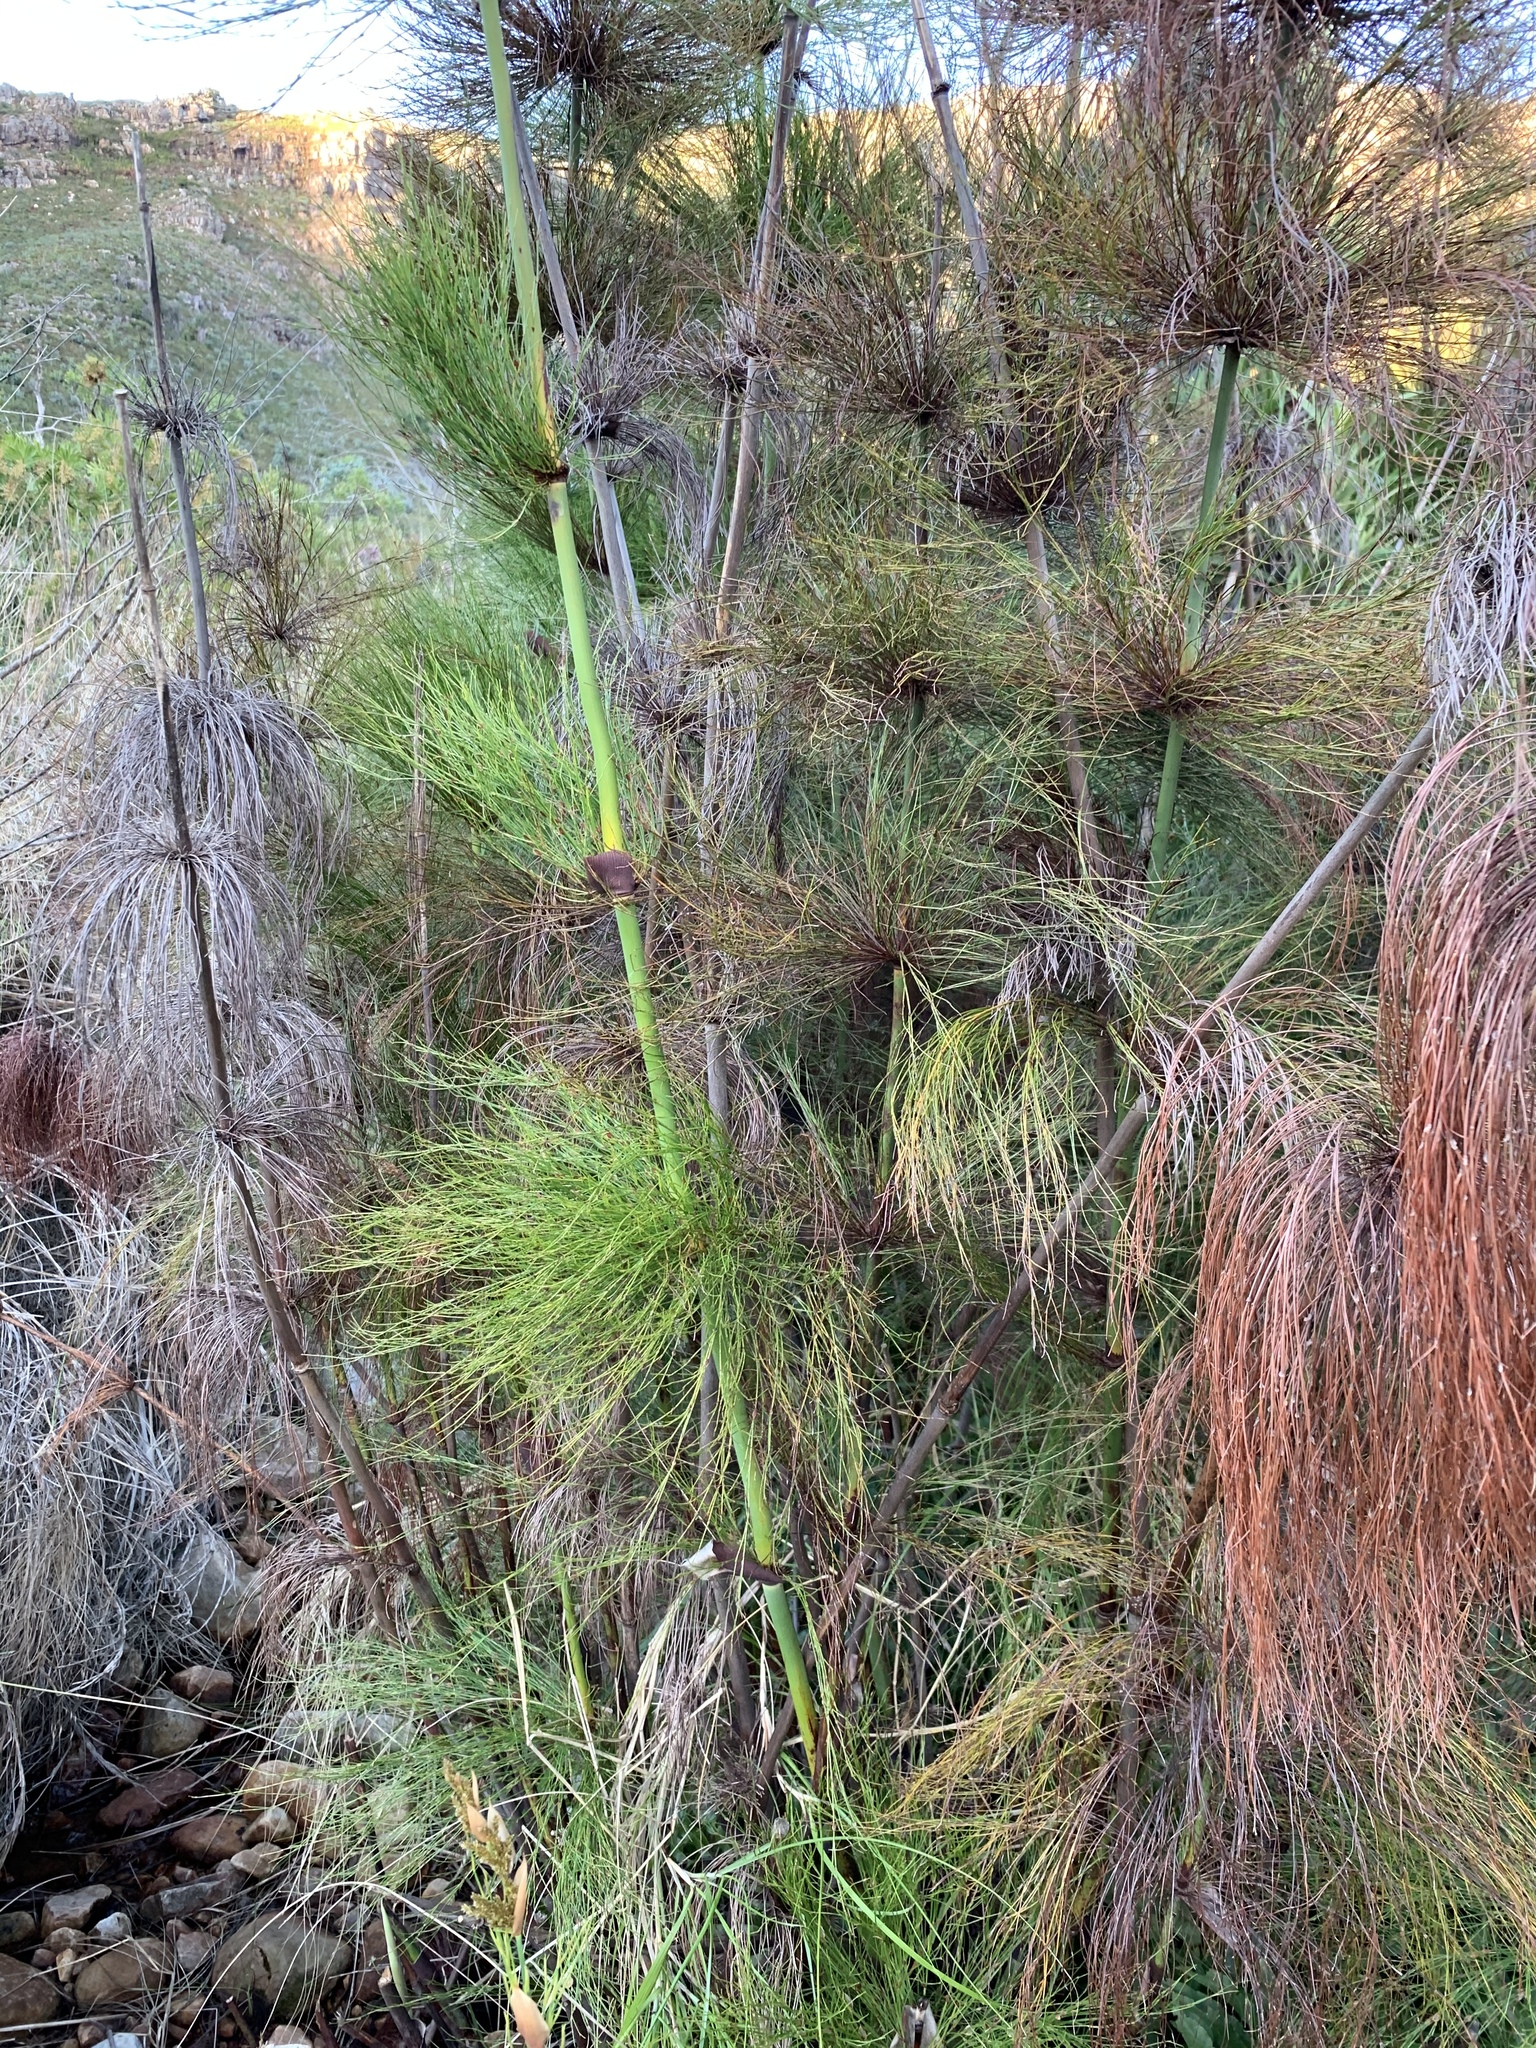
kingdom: Plantae
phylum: Tracheophyta
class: Liliopsida
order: Poales
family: Restionaceae
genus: Elegia
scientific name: Elegia capensis
